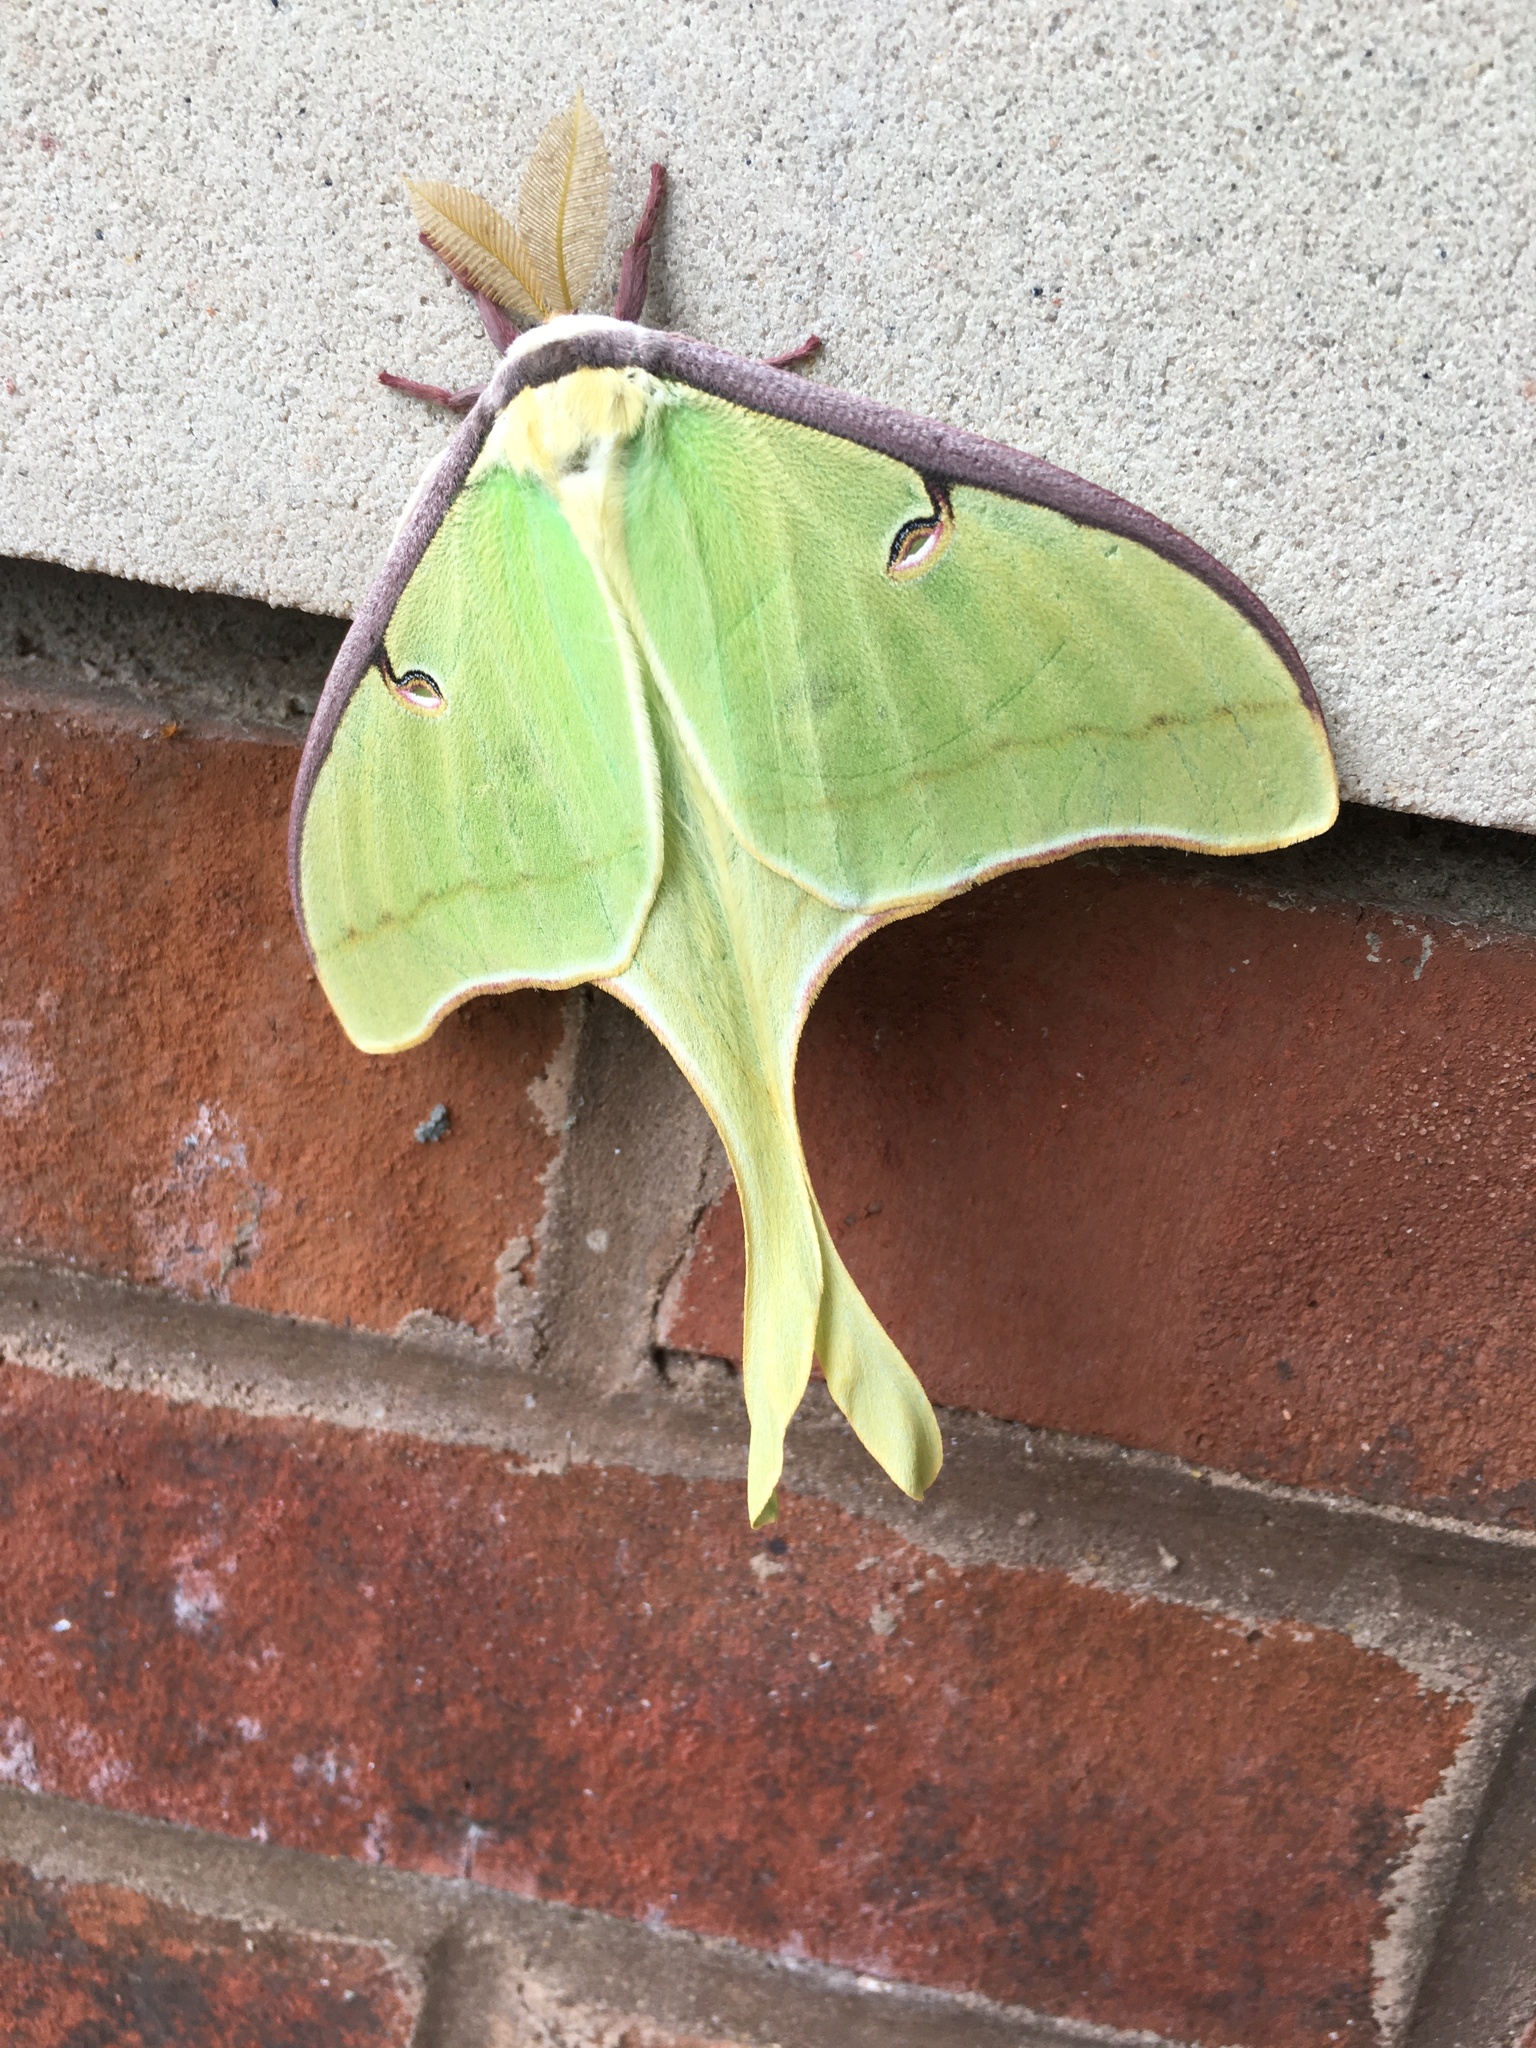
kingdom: Animalia
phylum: Arthropoda
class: Insecta
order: Lepidoptera
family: Saturniidae
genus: Actias
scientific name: Actias luna
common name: Luna moth
